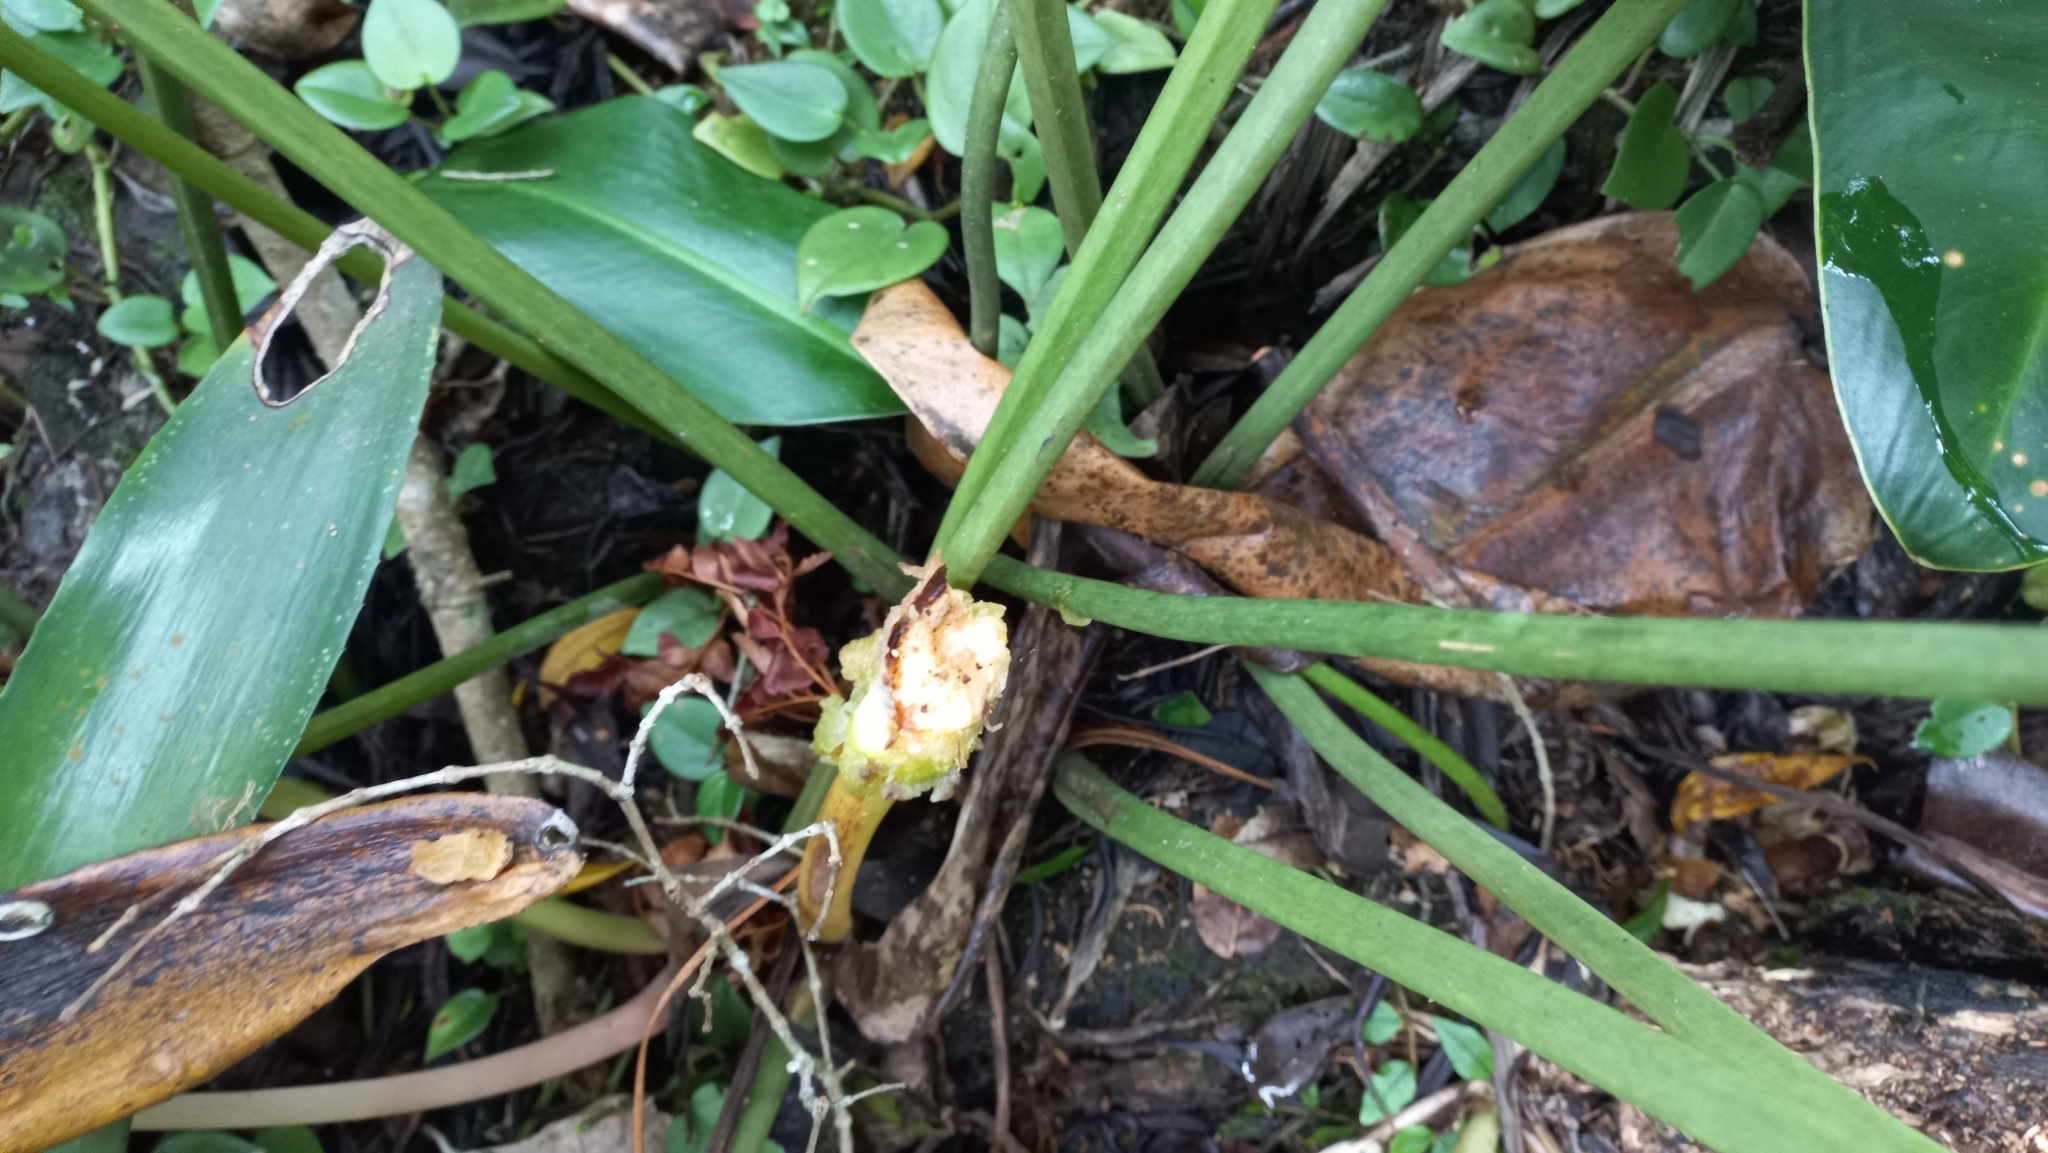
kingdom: Plantae
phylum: Tracheophyta
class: Liliopsida
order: Alismatales
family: Araceae
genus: Philodendron
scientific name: Philodendron renauxii
